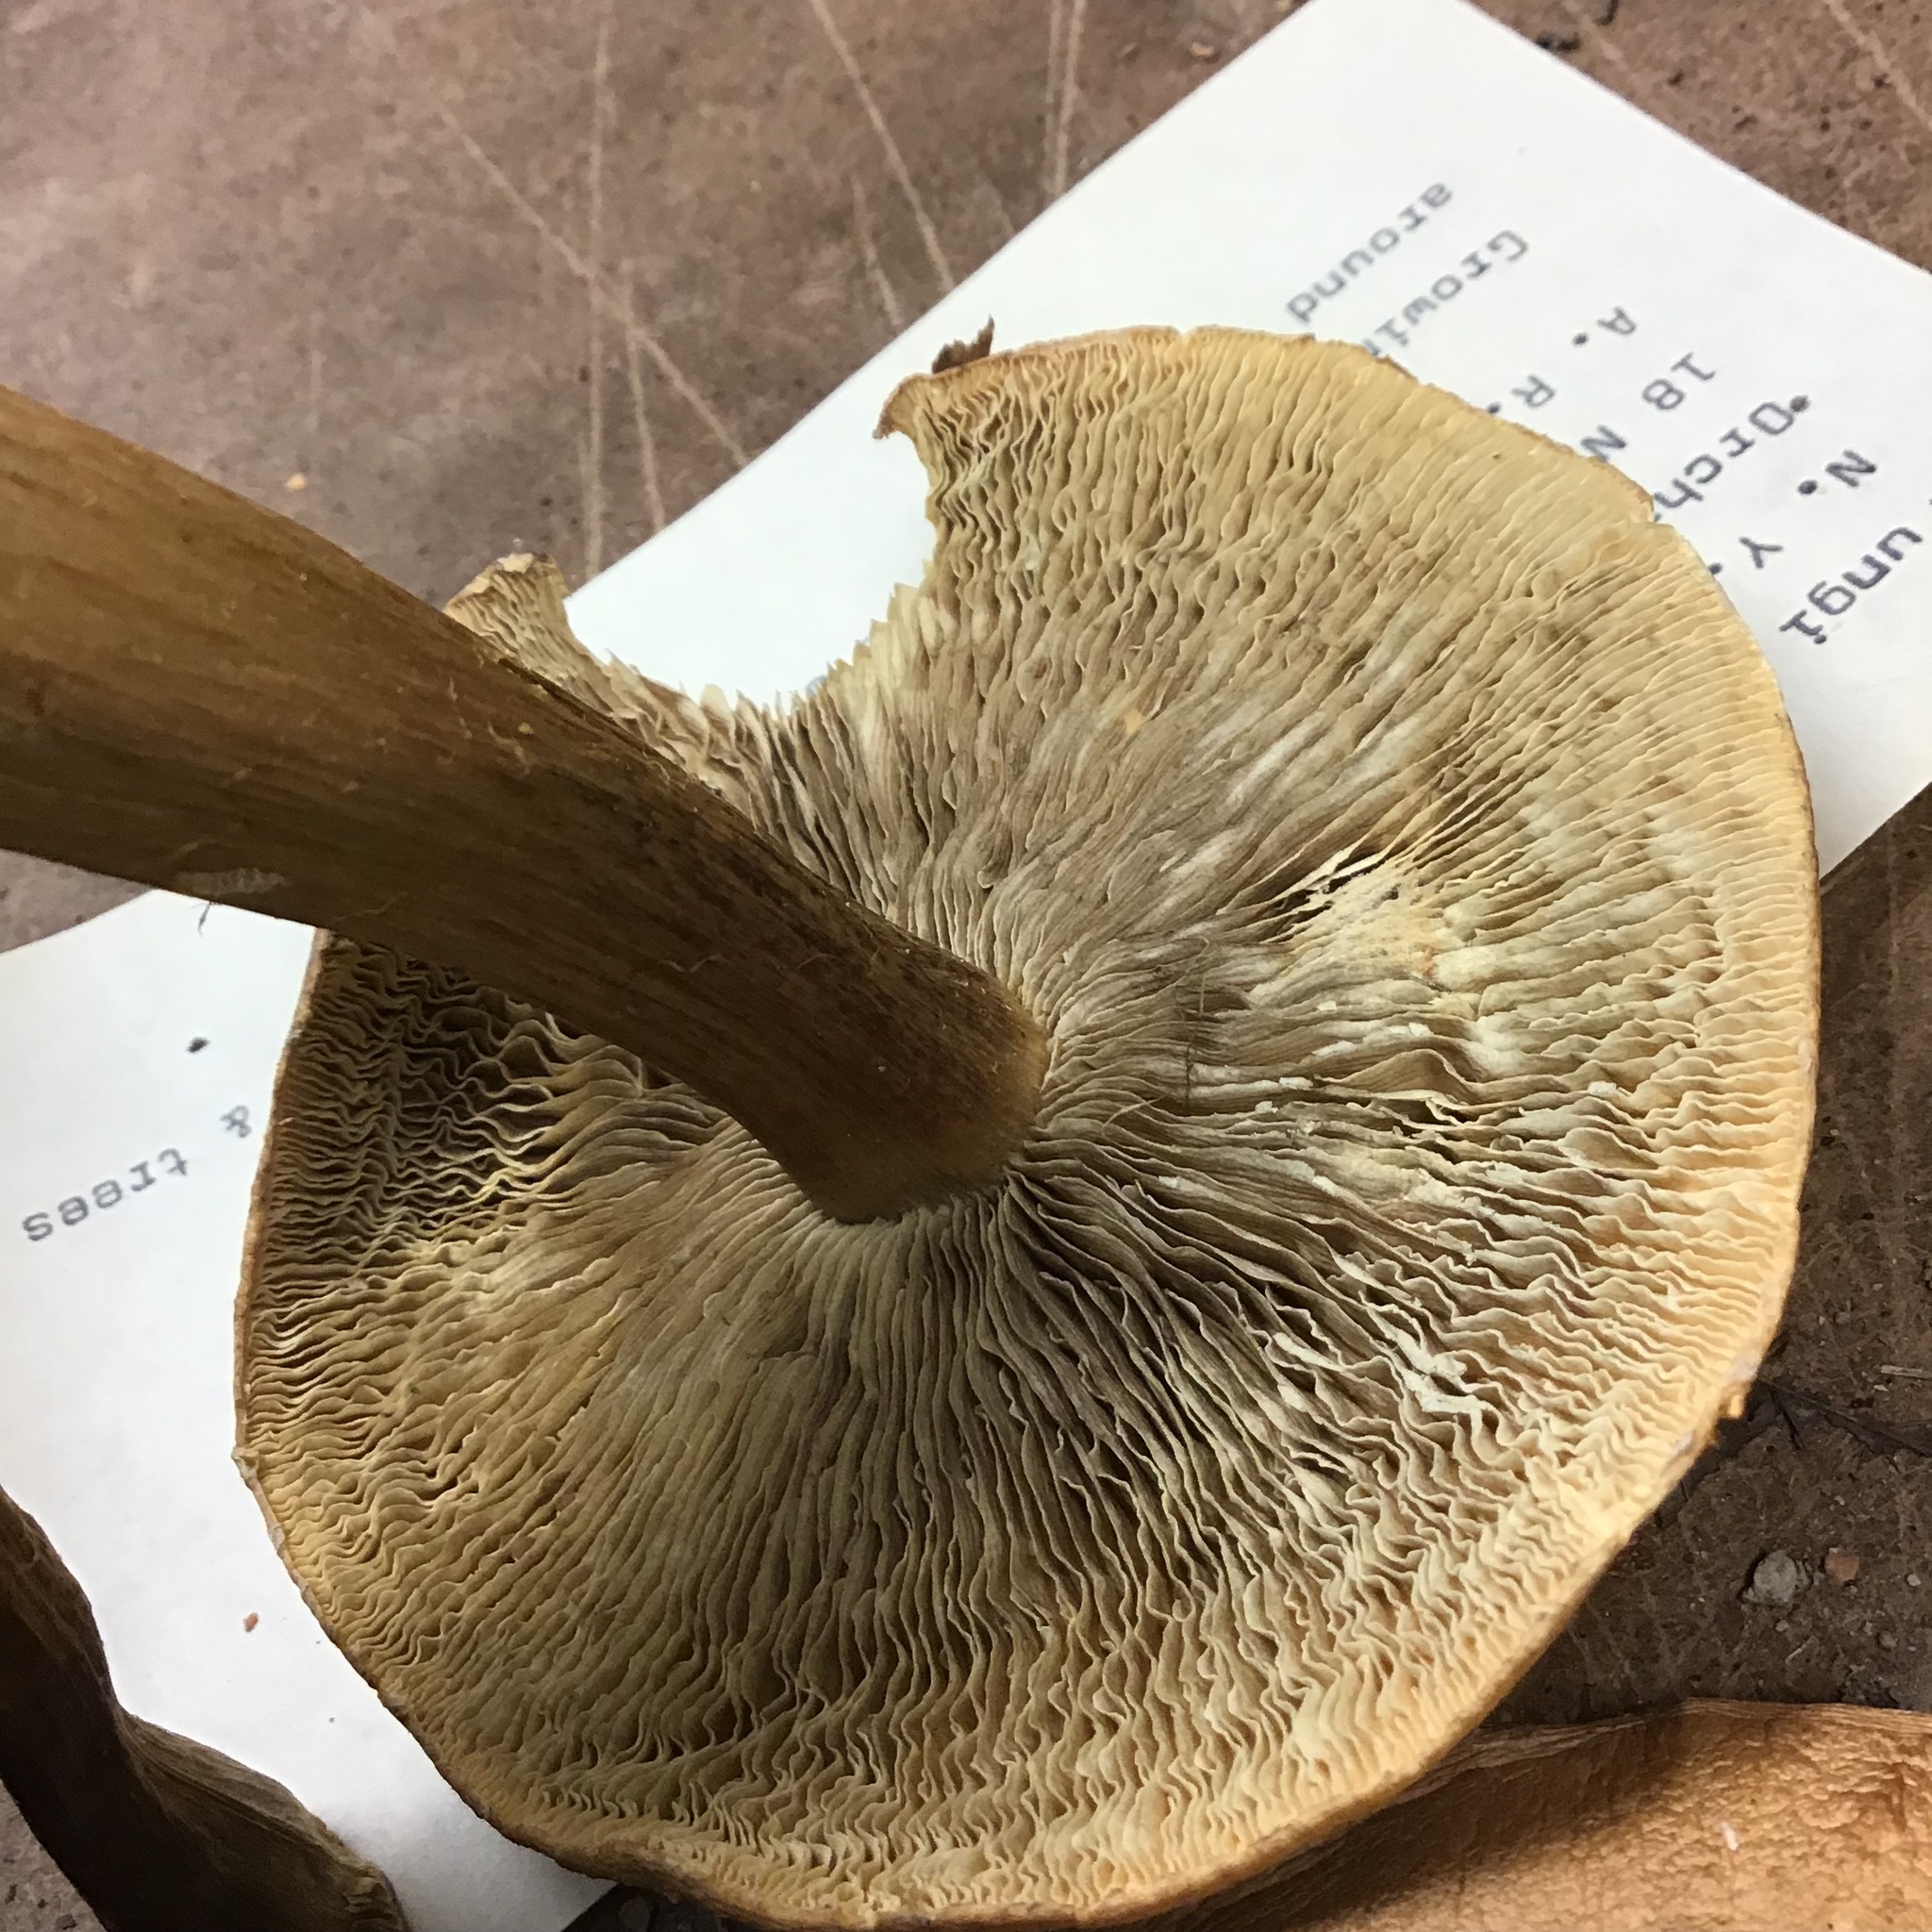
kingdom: Fungi
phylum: Basidiomycota
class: Agaricomycetes
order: Agaricales
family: Strophariaceae
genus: Stropharia
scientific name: Stropharia rugosoannulata
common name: Wine roundhead
